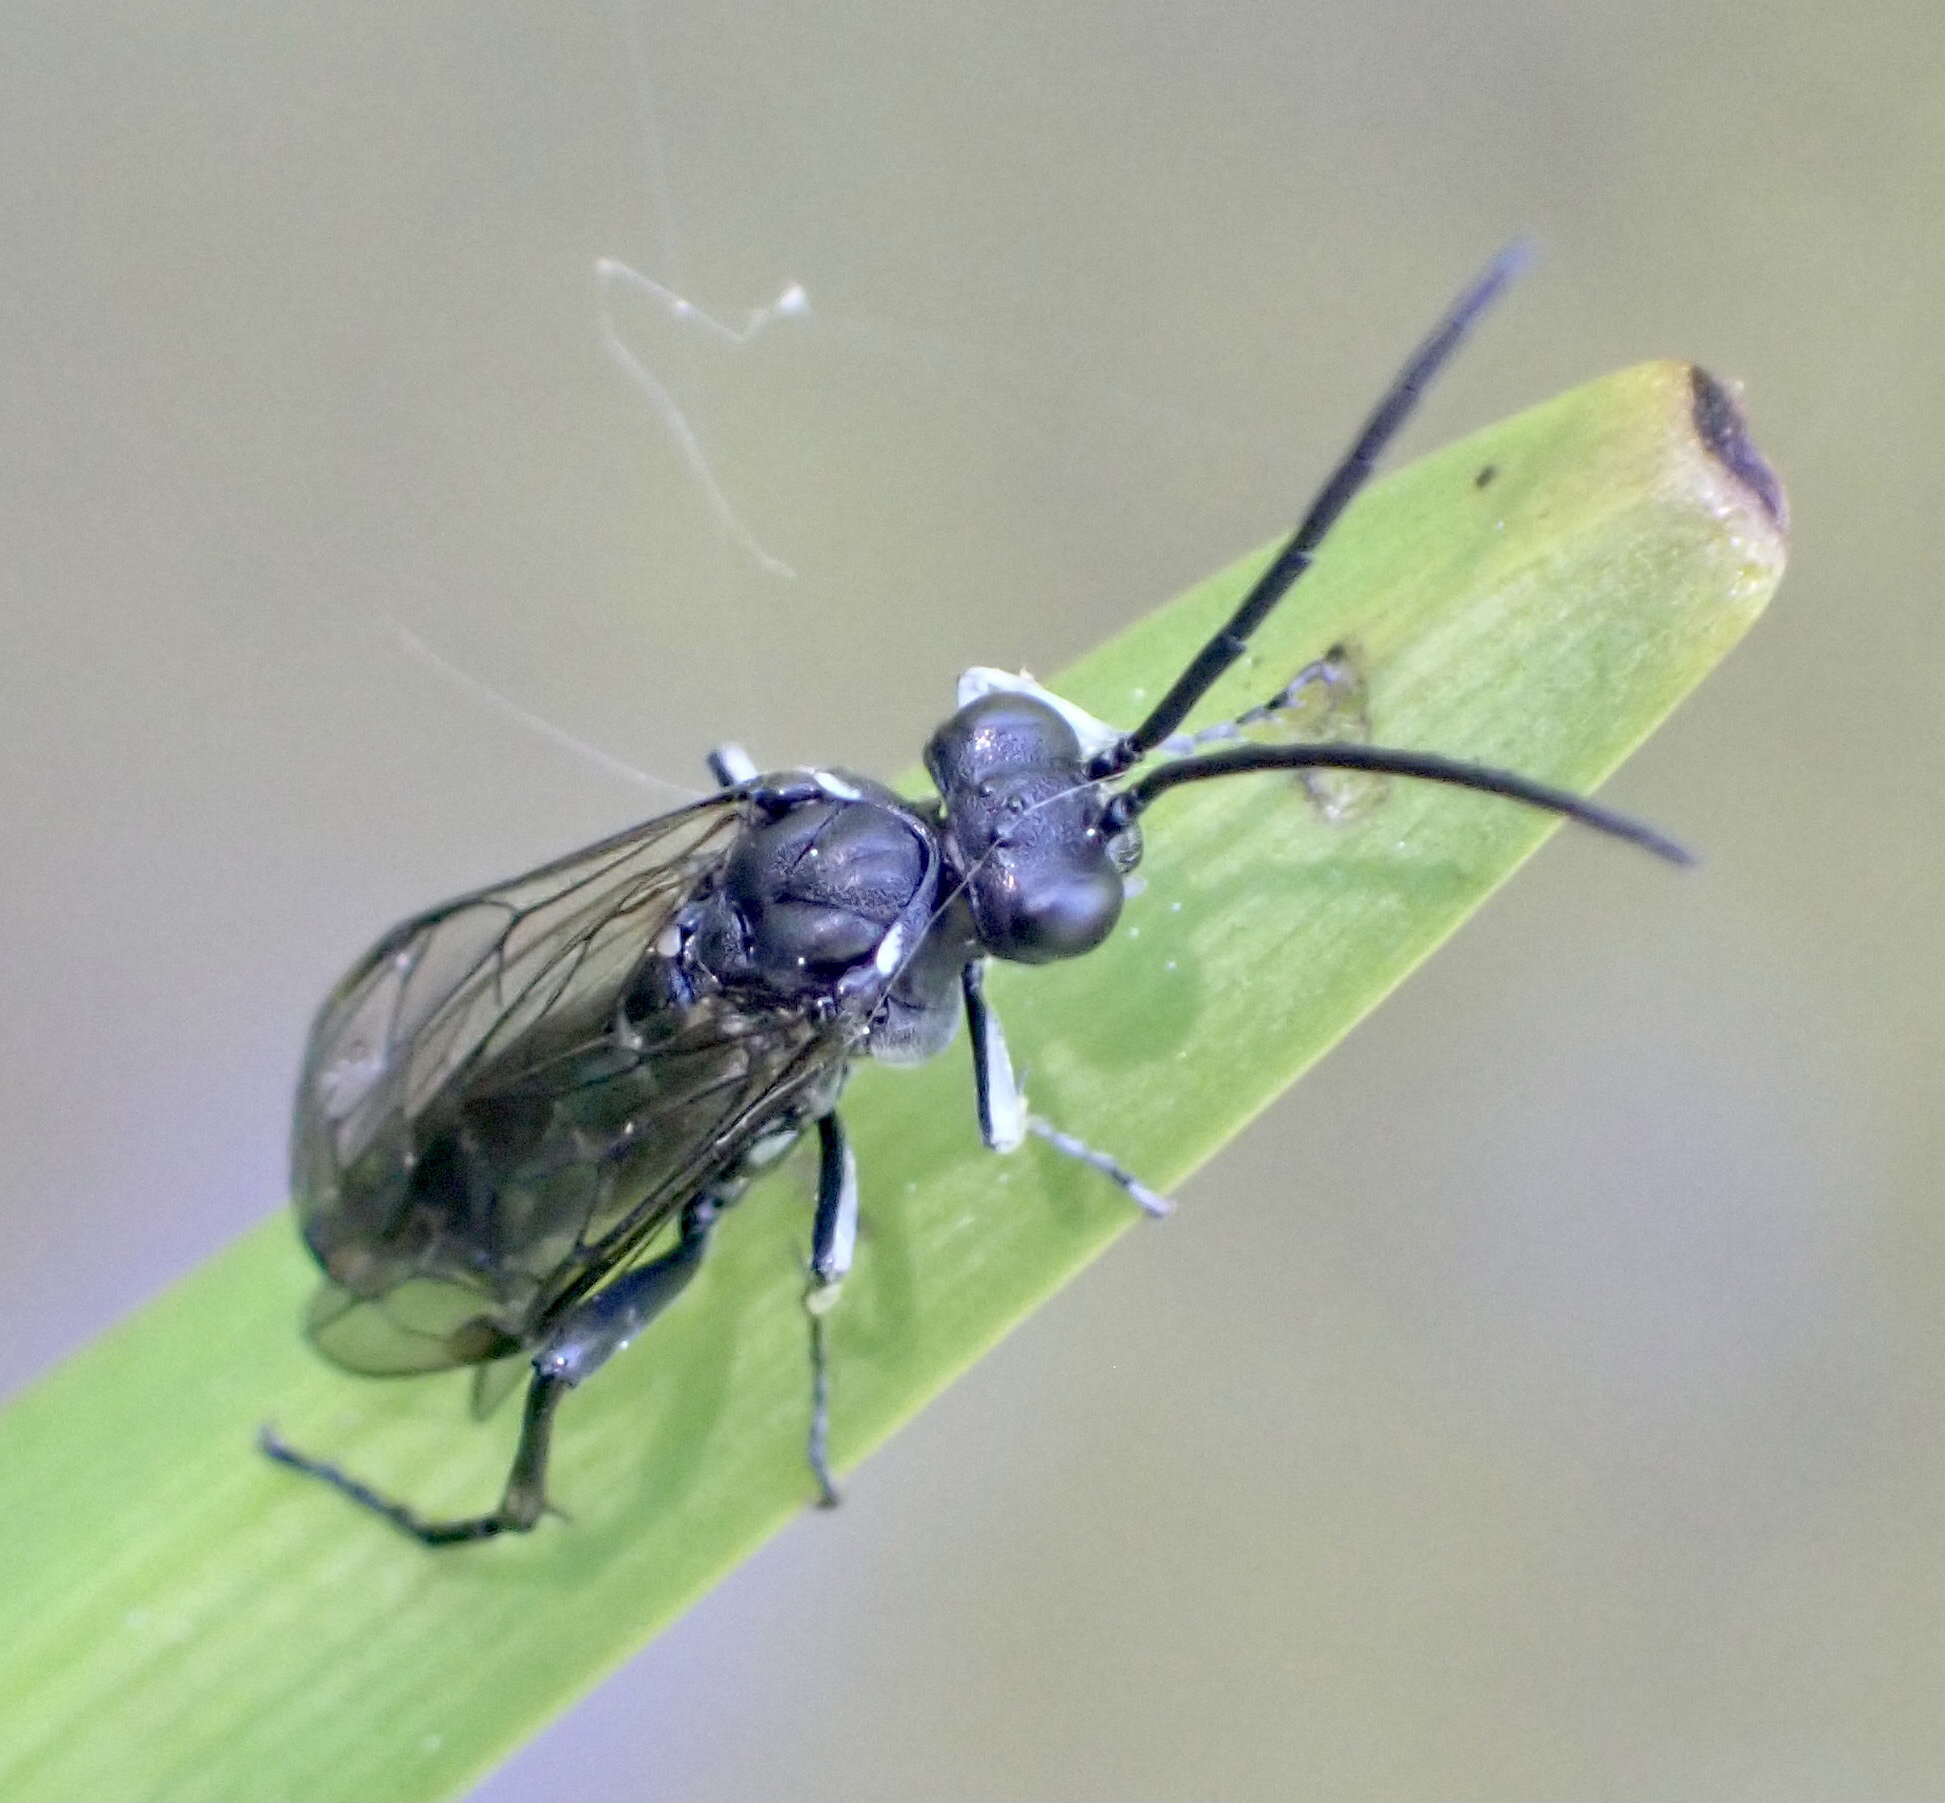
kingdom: Animalia
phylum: Arthropoda
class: Insecta
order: Hymenoptera
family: Tenthredinidae
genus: Macrophya
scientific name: Macrophya duodecimpunctata
